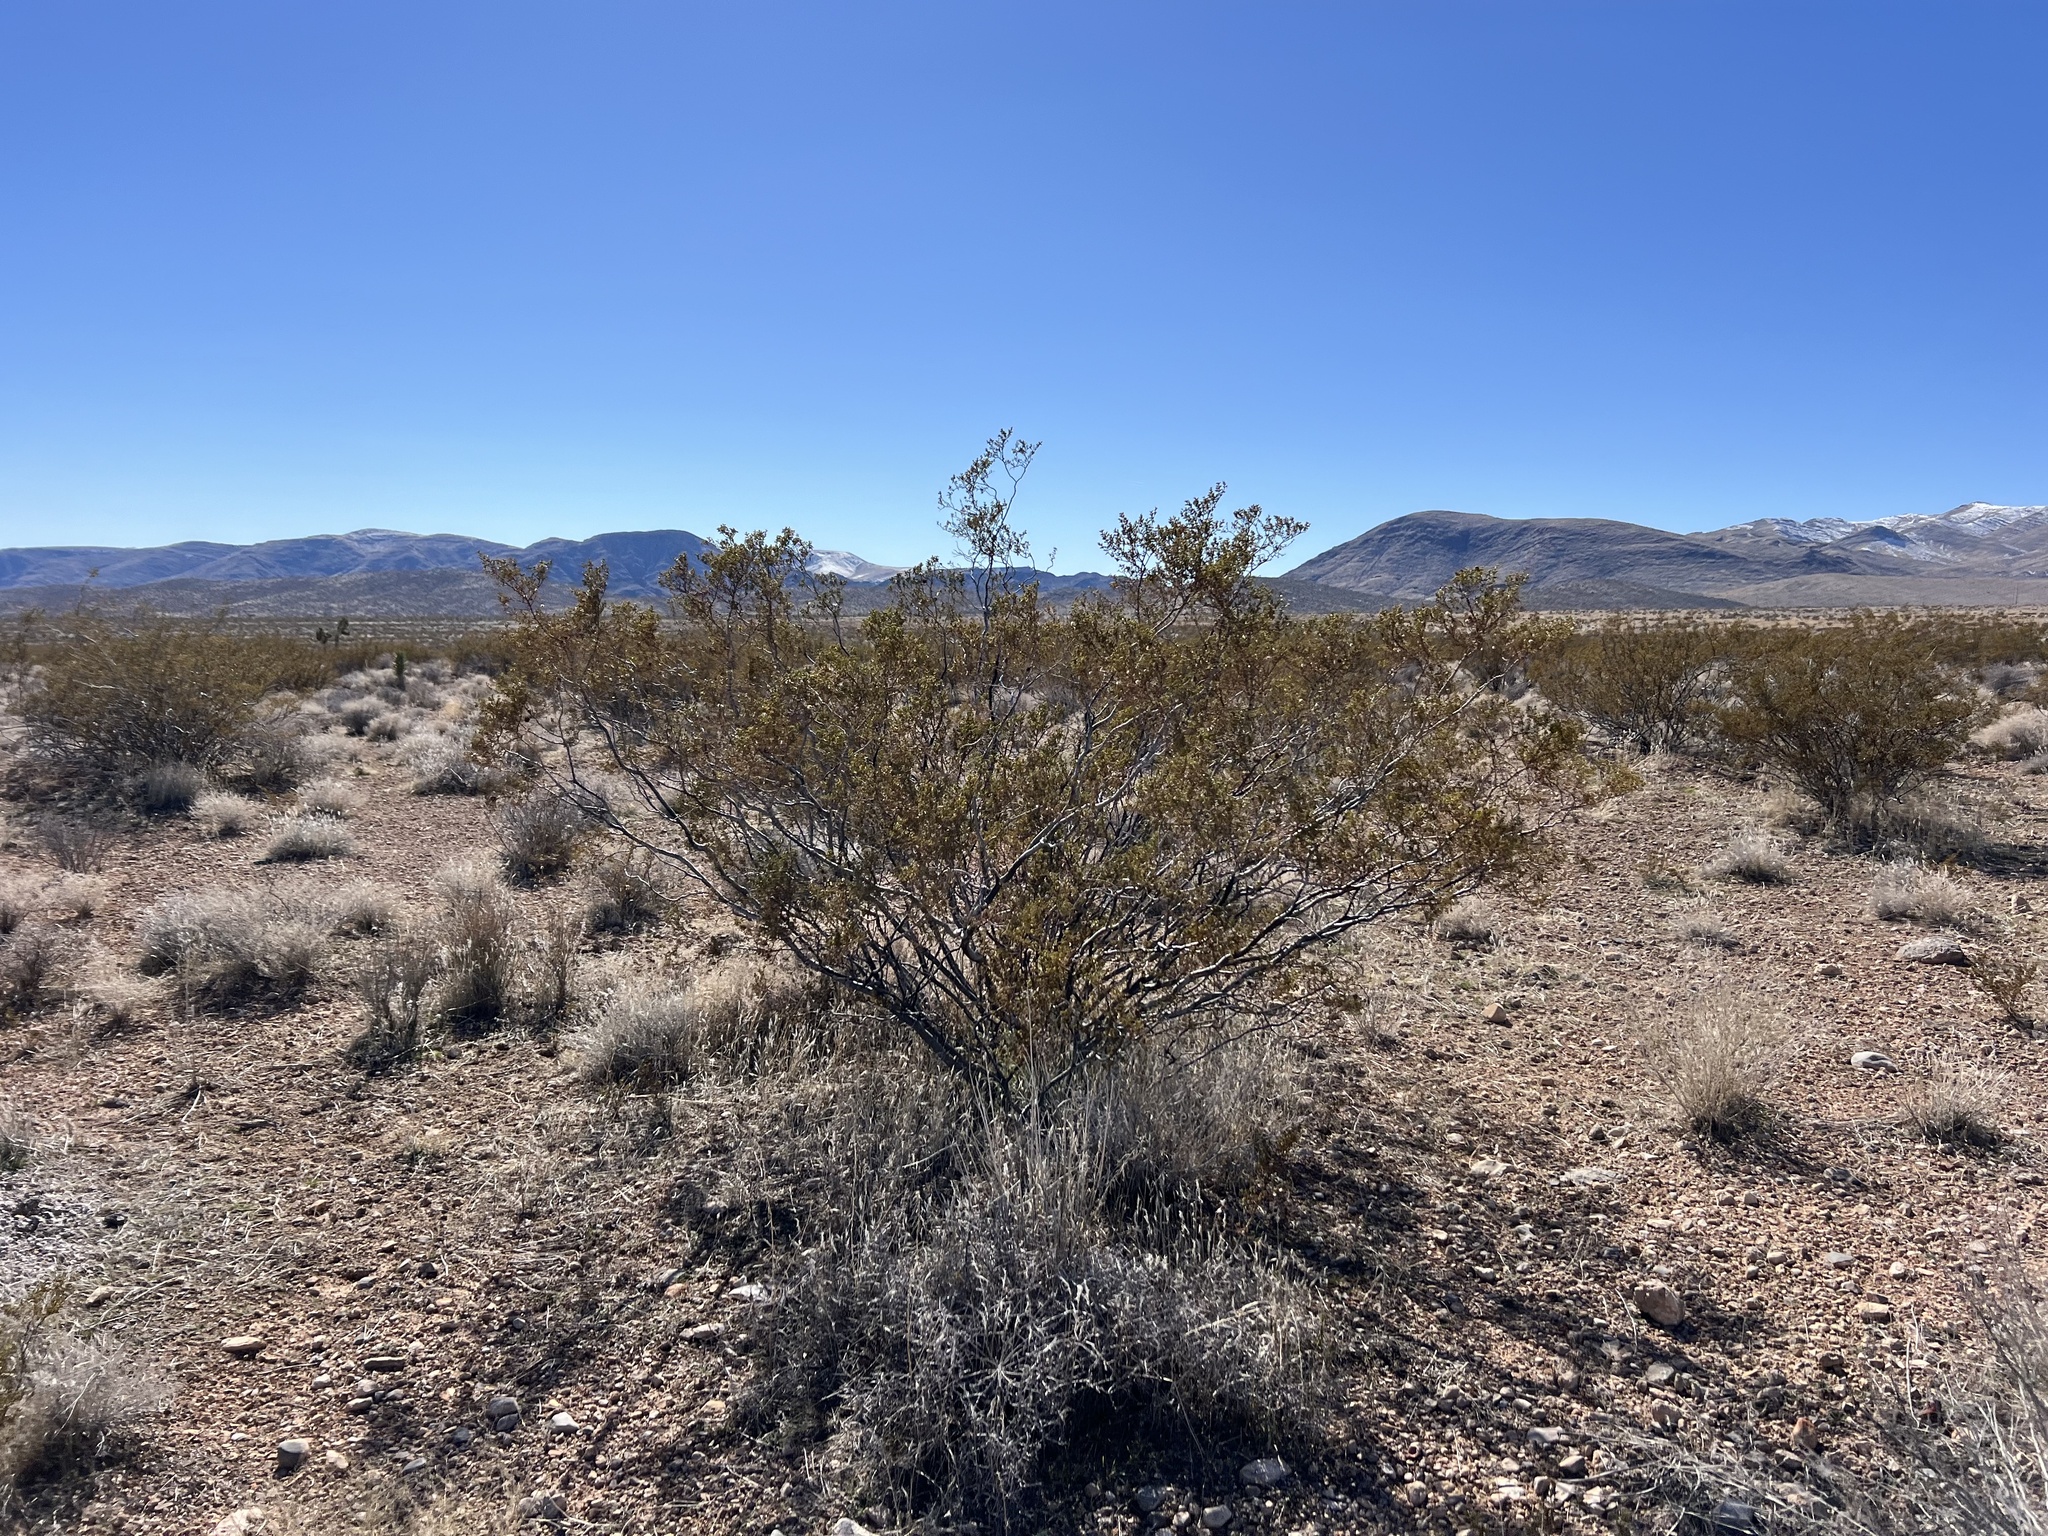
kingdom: Plantae
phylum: Tracheophyta
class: Magnoliopsida
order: Zygophyllales
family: Zygophyllaceae
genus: Larrea
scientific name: Larrea tridentata
